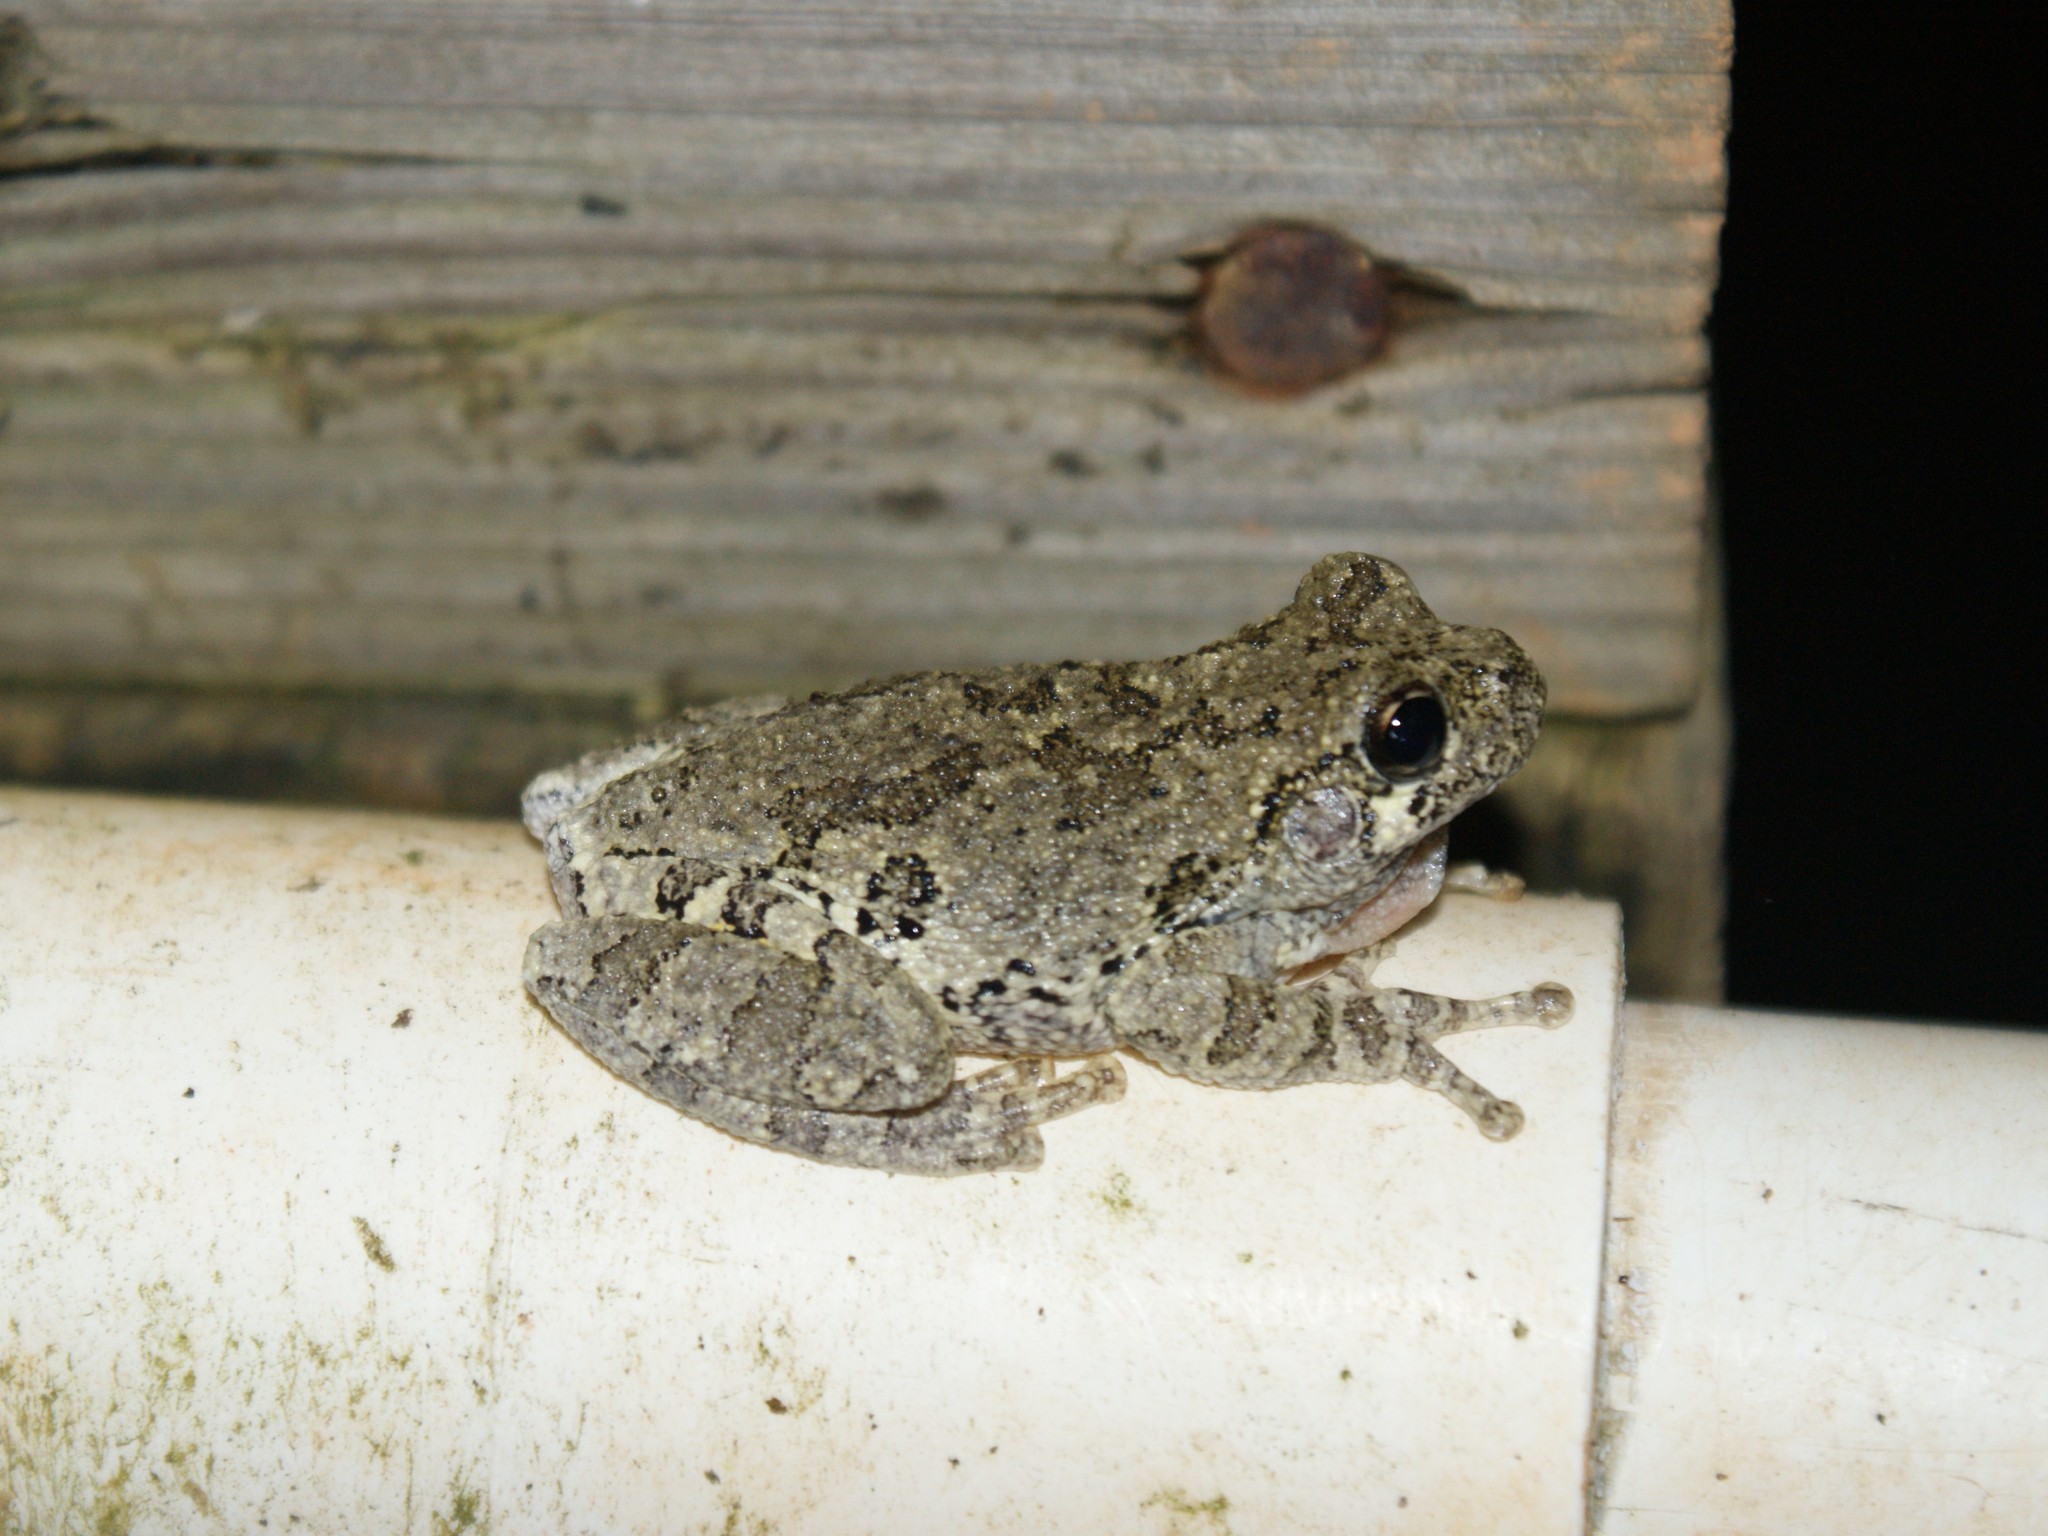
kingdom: Animalia
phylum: Chordata
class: Amphibia
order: Anura
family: Hylidae
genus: Dryophytes
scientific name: Dryophytes chrysoscelis
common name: Cope's gray treefrog
